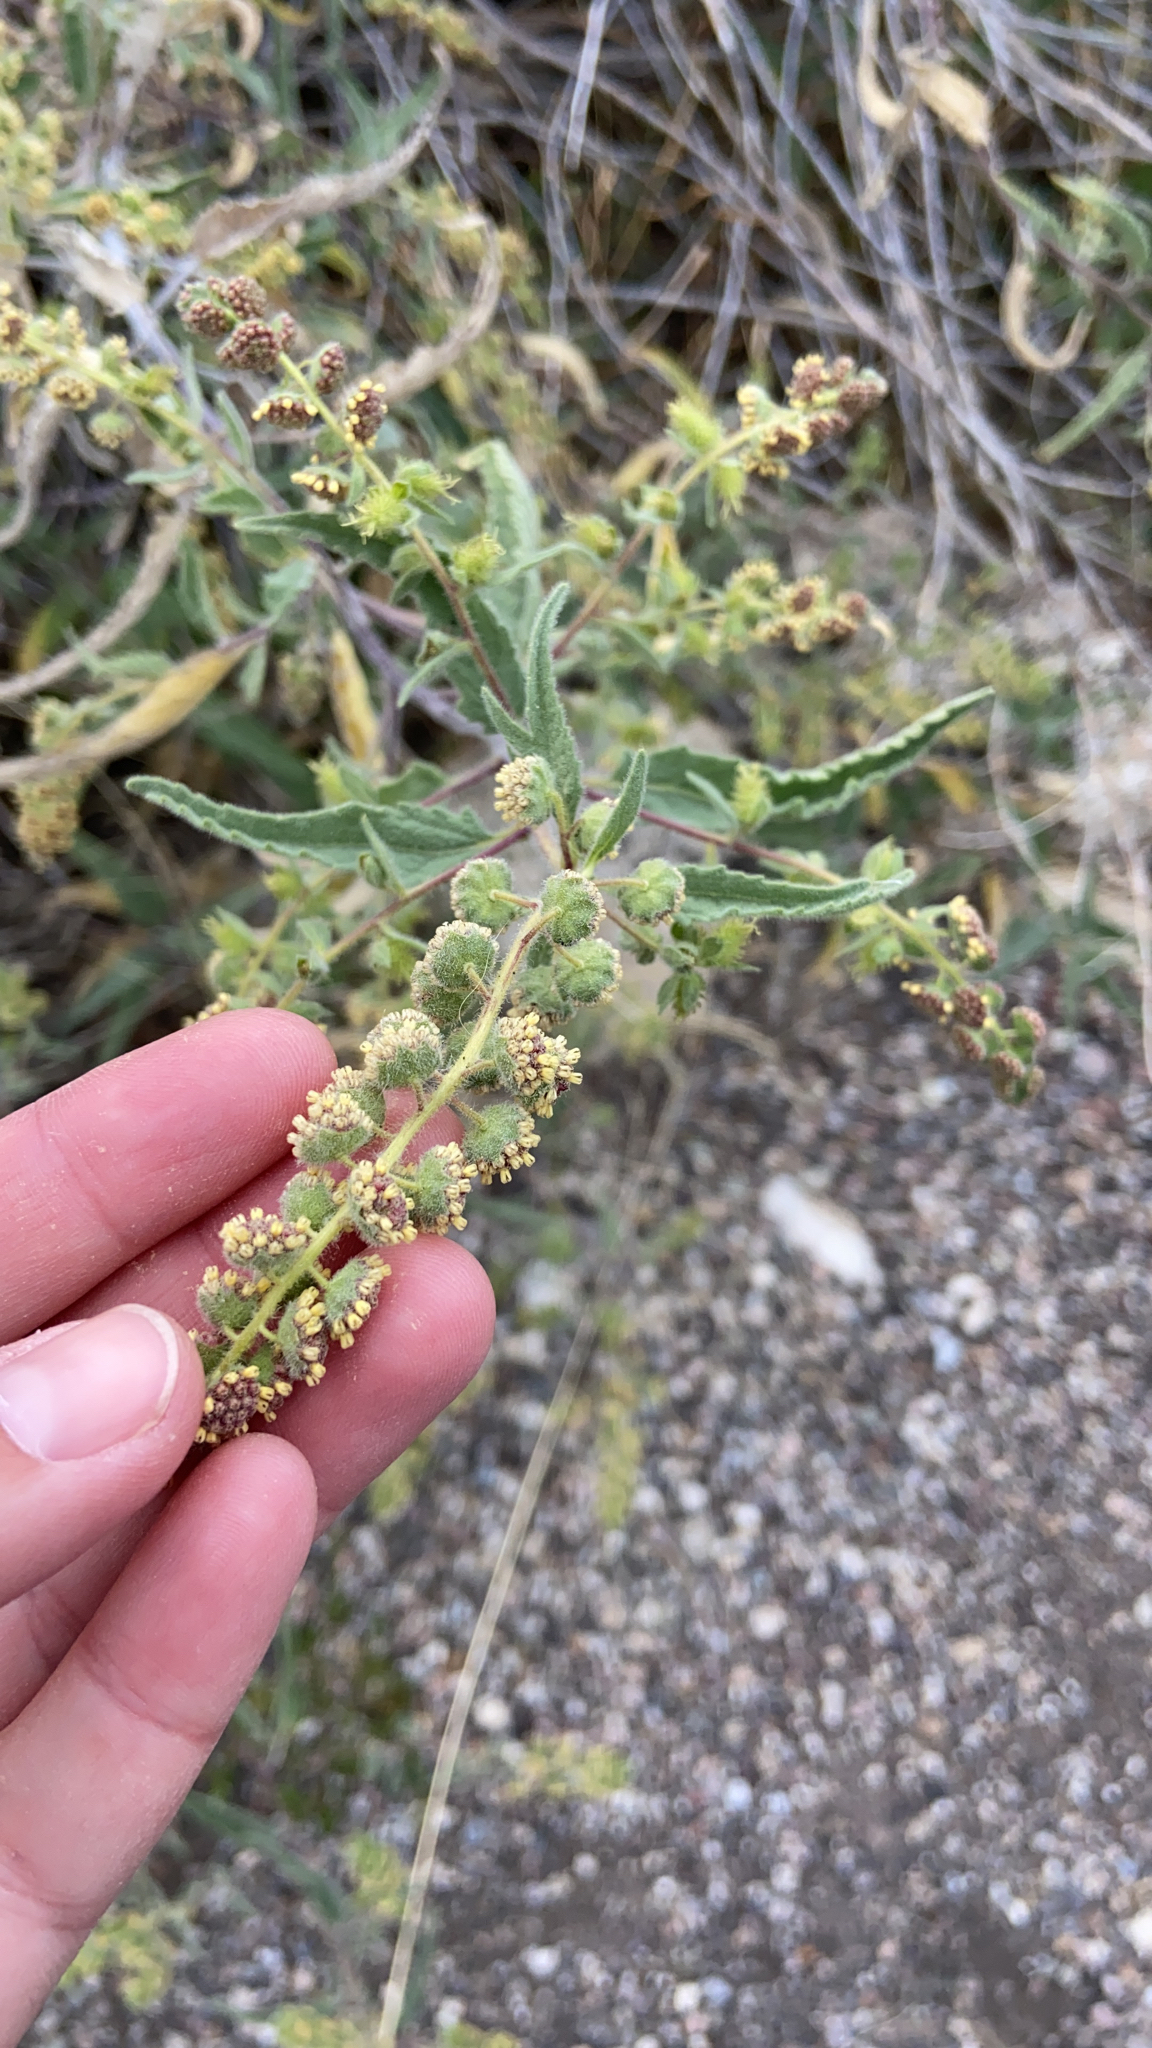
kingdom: Plantae
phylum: Tracheophyta
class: Magnoliopsida
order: Asterales
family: Asteraceae
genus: Ambrosia
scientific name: Ambrosia ambrosioides
